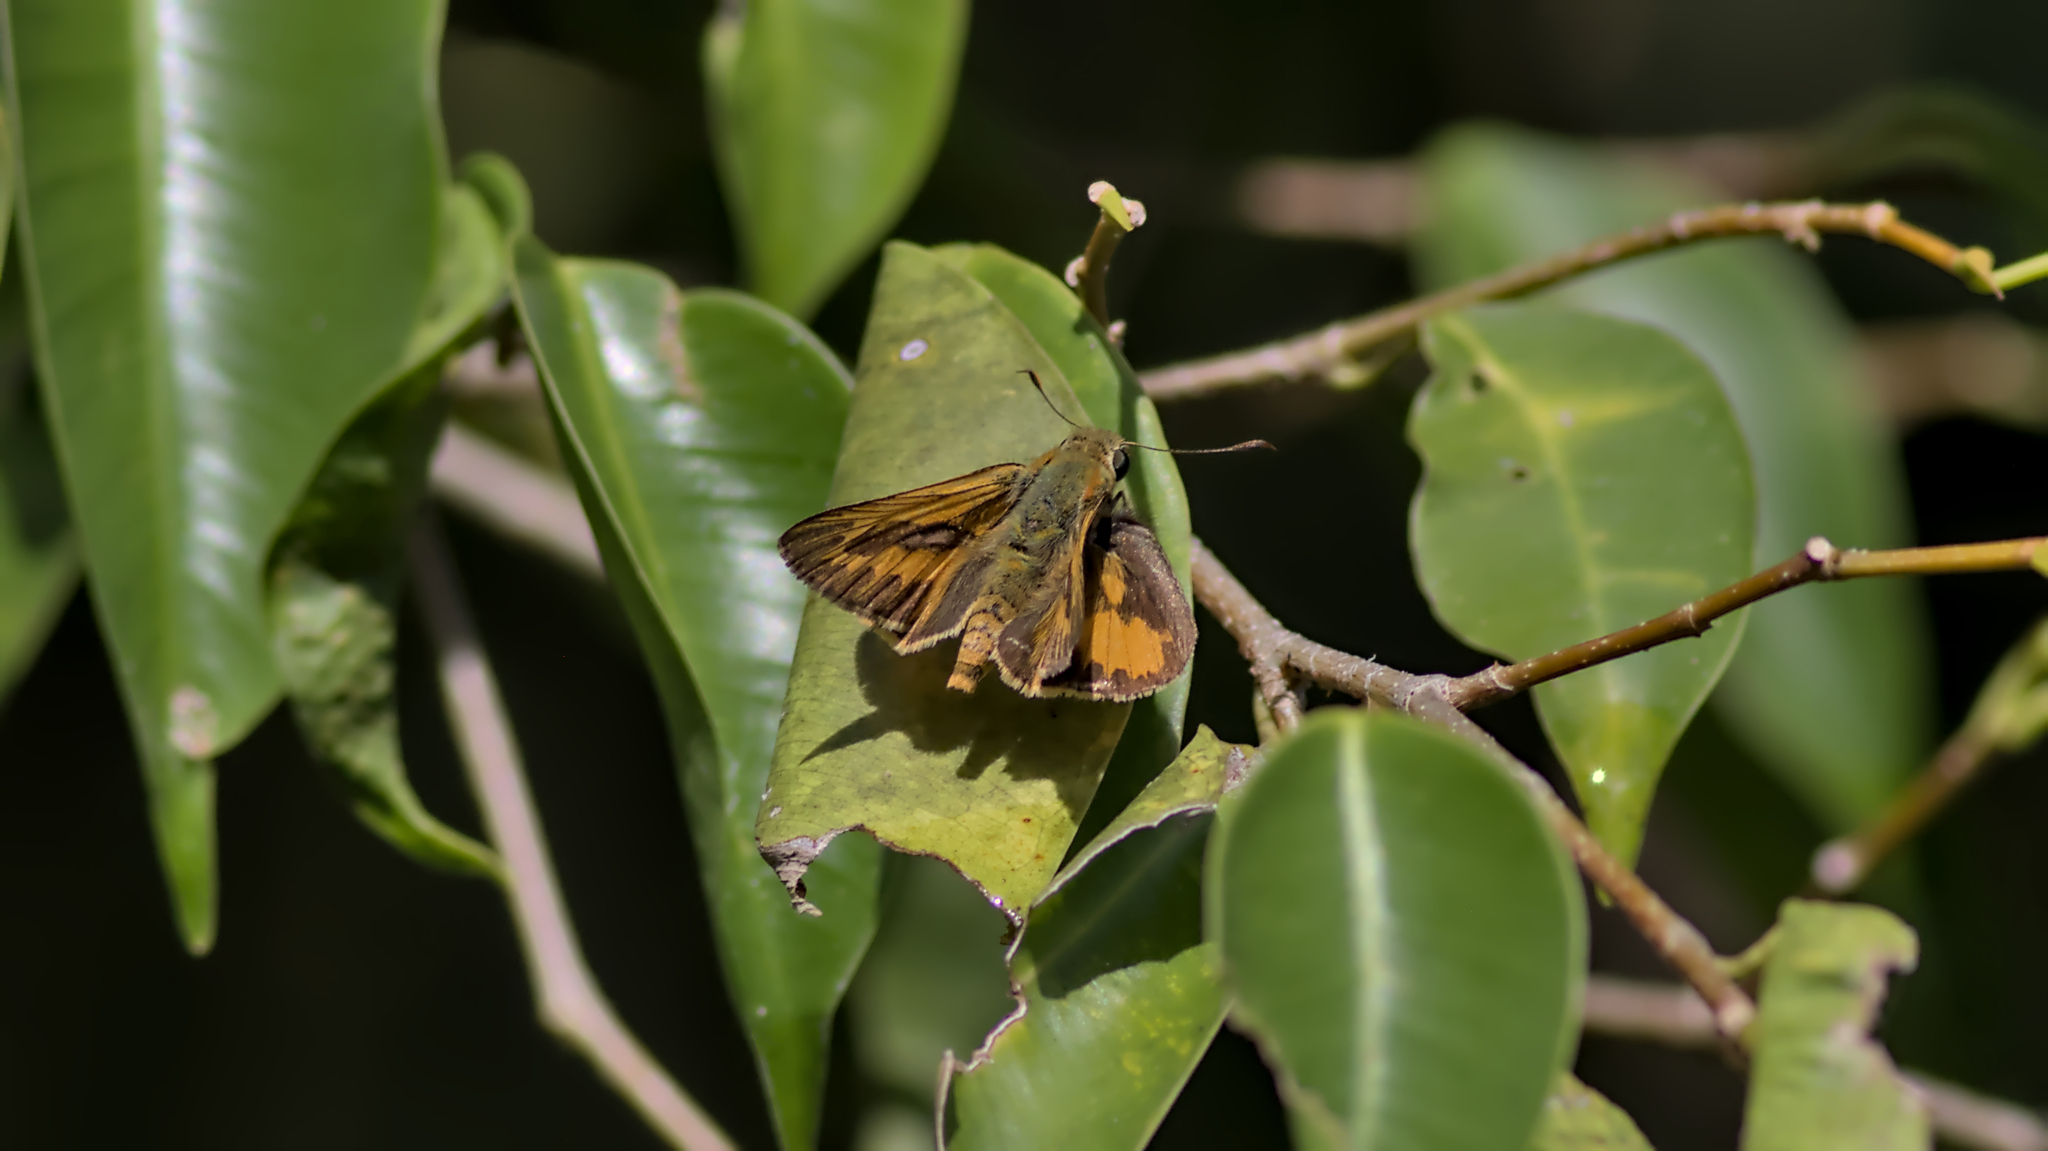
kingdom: Animalia
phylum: Arthropoda
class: Insecta
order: Lepidoptera
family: Hesperiidae
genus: Telicota
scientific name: Telicota augias
